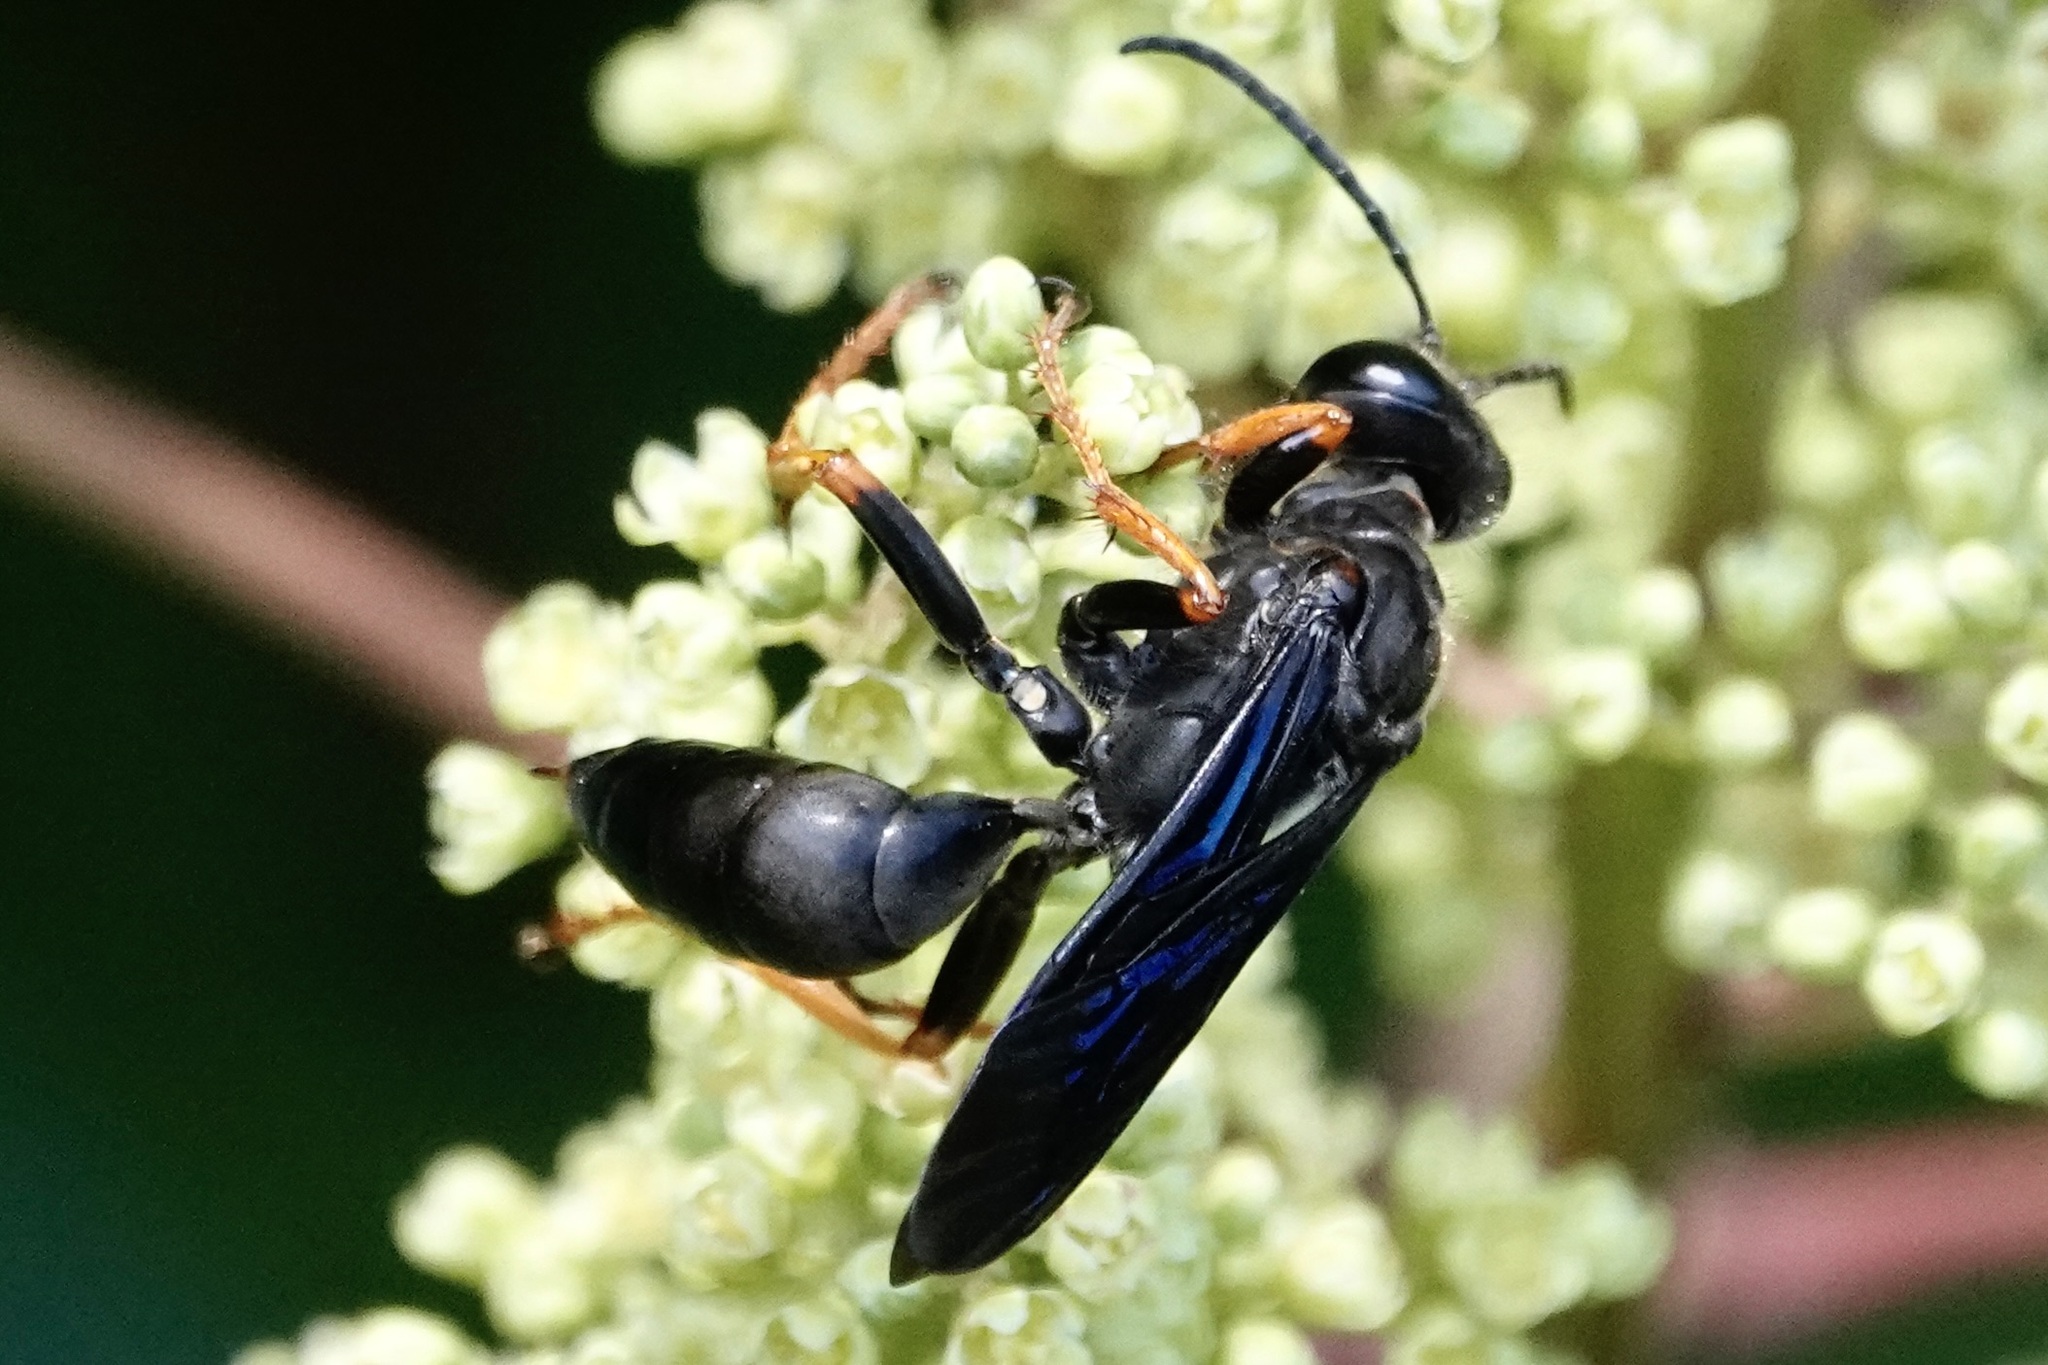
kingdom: Animalia
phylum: Arthropoda
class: Insecta
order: Hymenoptera
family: Sphecidae
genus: Sphex
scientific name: Sphex nudus
